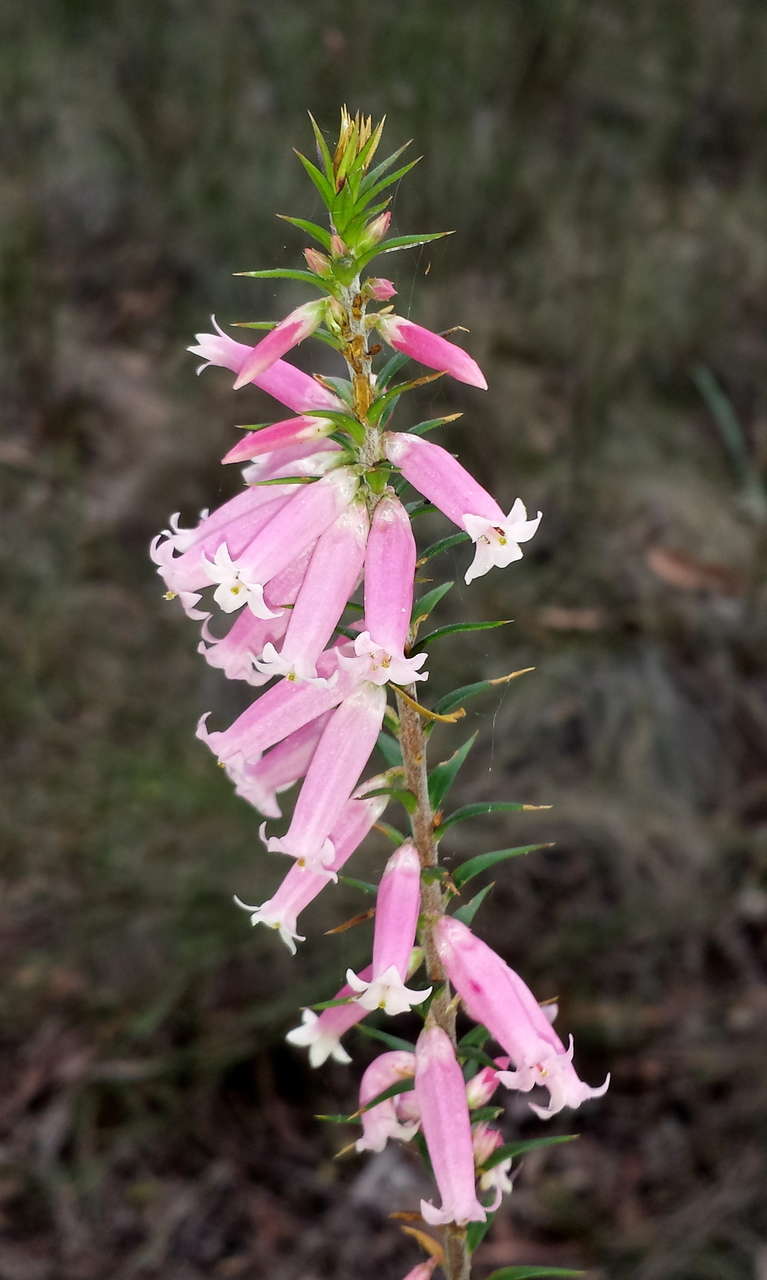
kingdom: Plantae
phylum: Tracheophyta
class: Magnoliopsida
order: Ericales
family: Ericaceae
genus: Epacris
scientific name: Epacris impressa
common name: Common-heath
